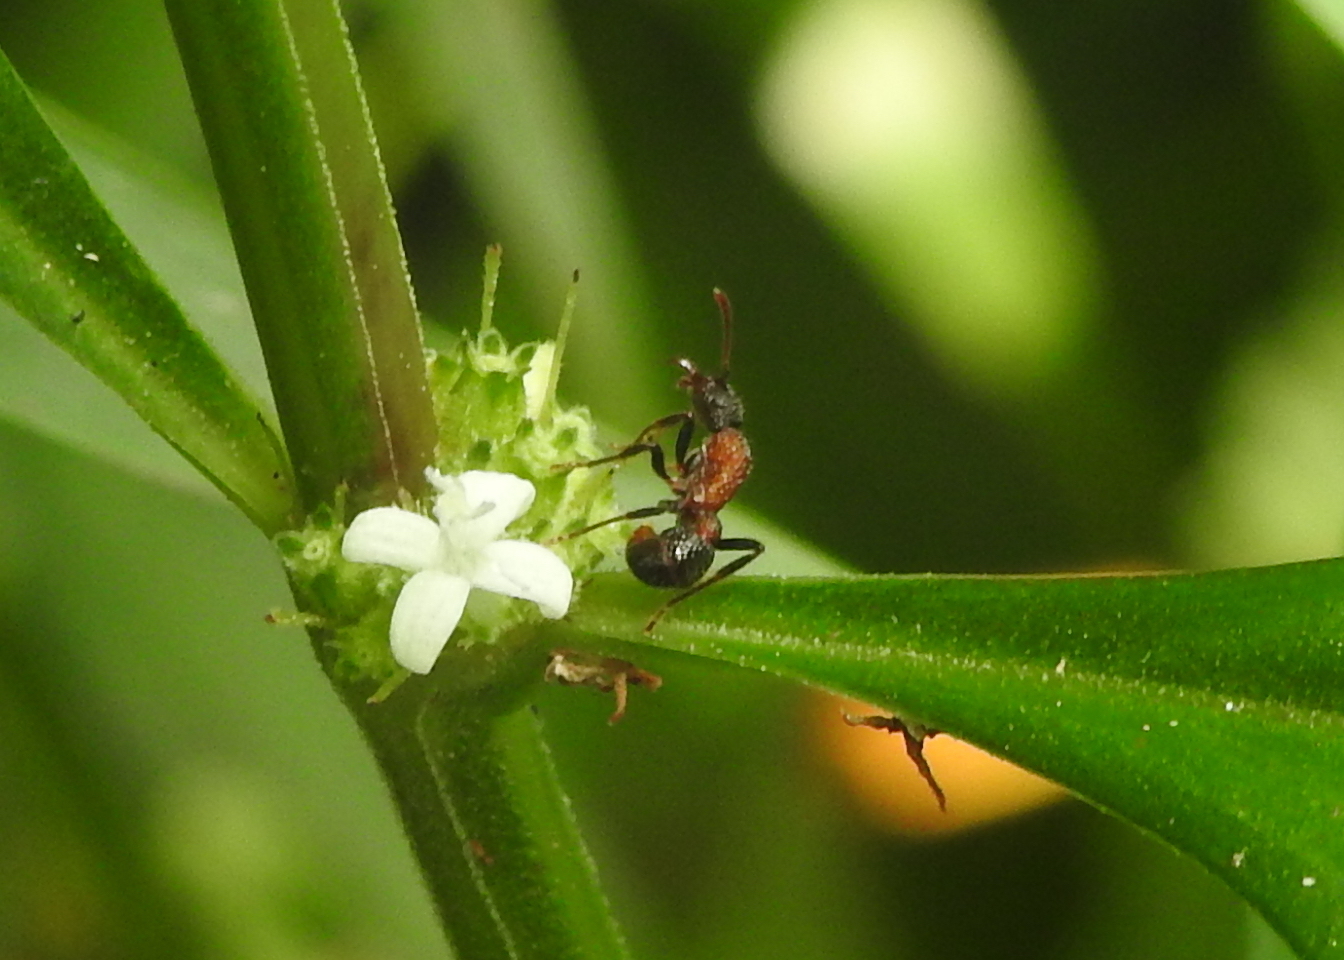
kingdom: Animalia
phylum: Arthropoda
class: Insecta
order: Hymenoptera
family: Formicidae
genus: Stictoponera
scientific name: Stictoponera bicolor
